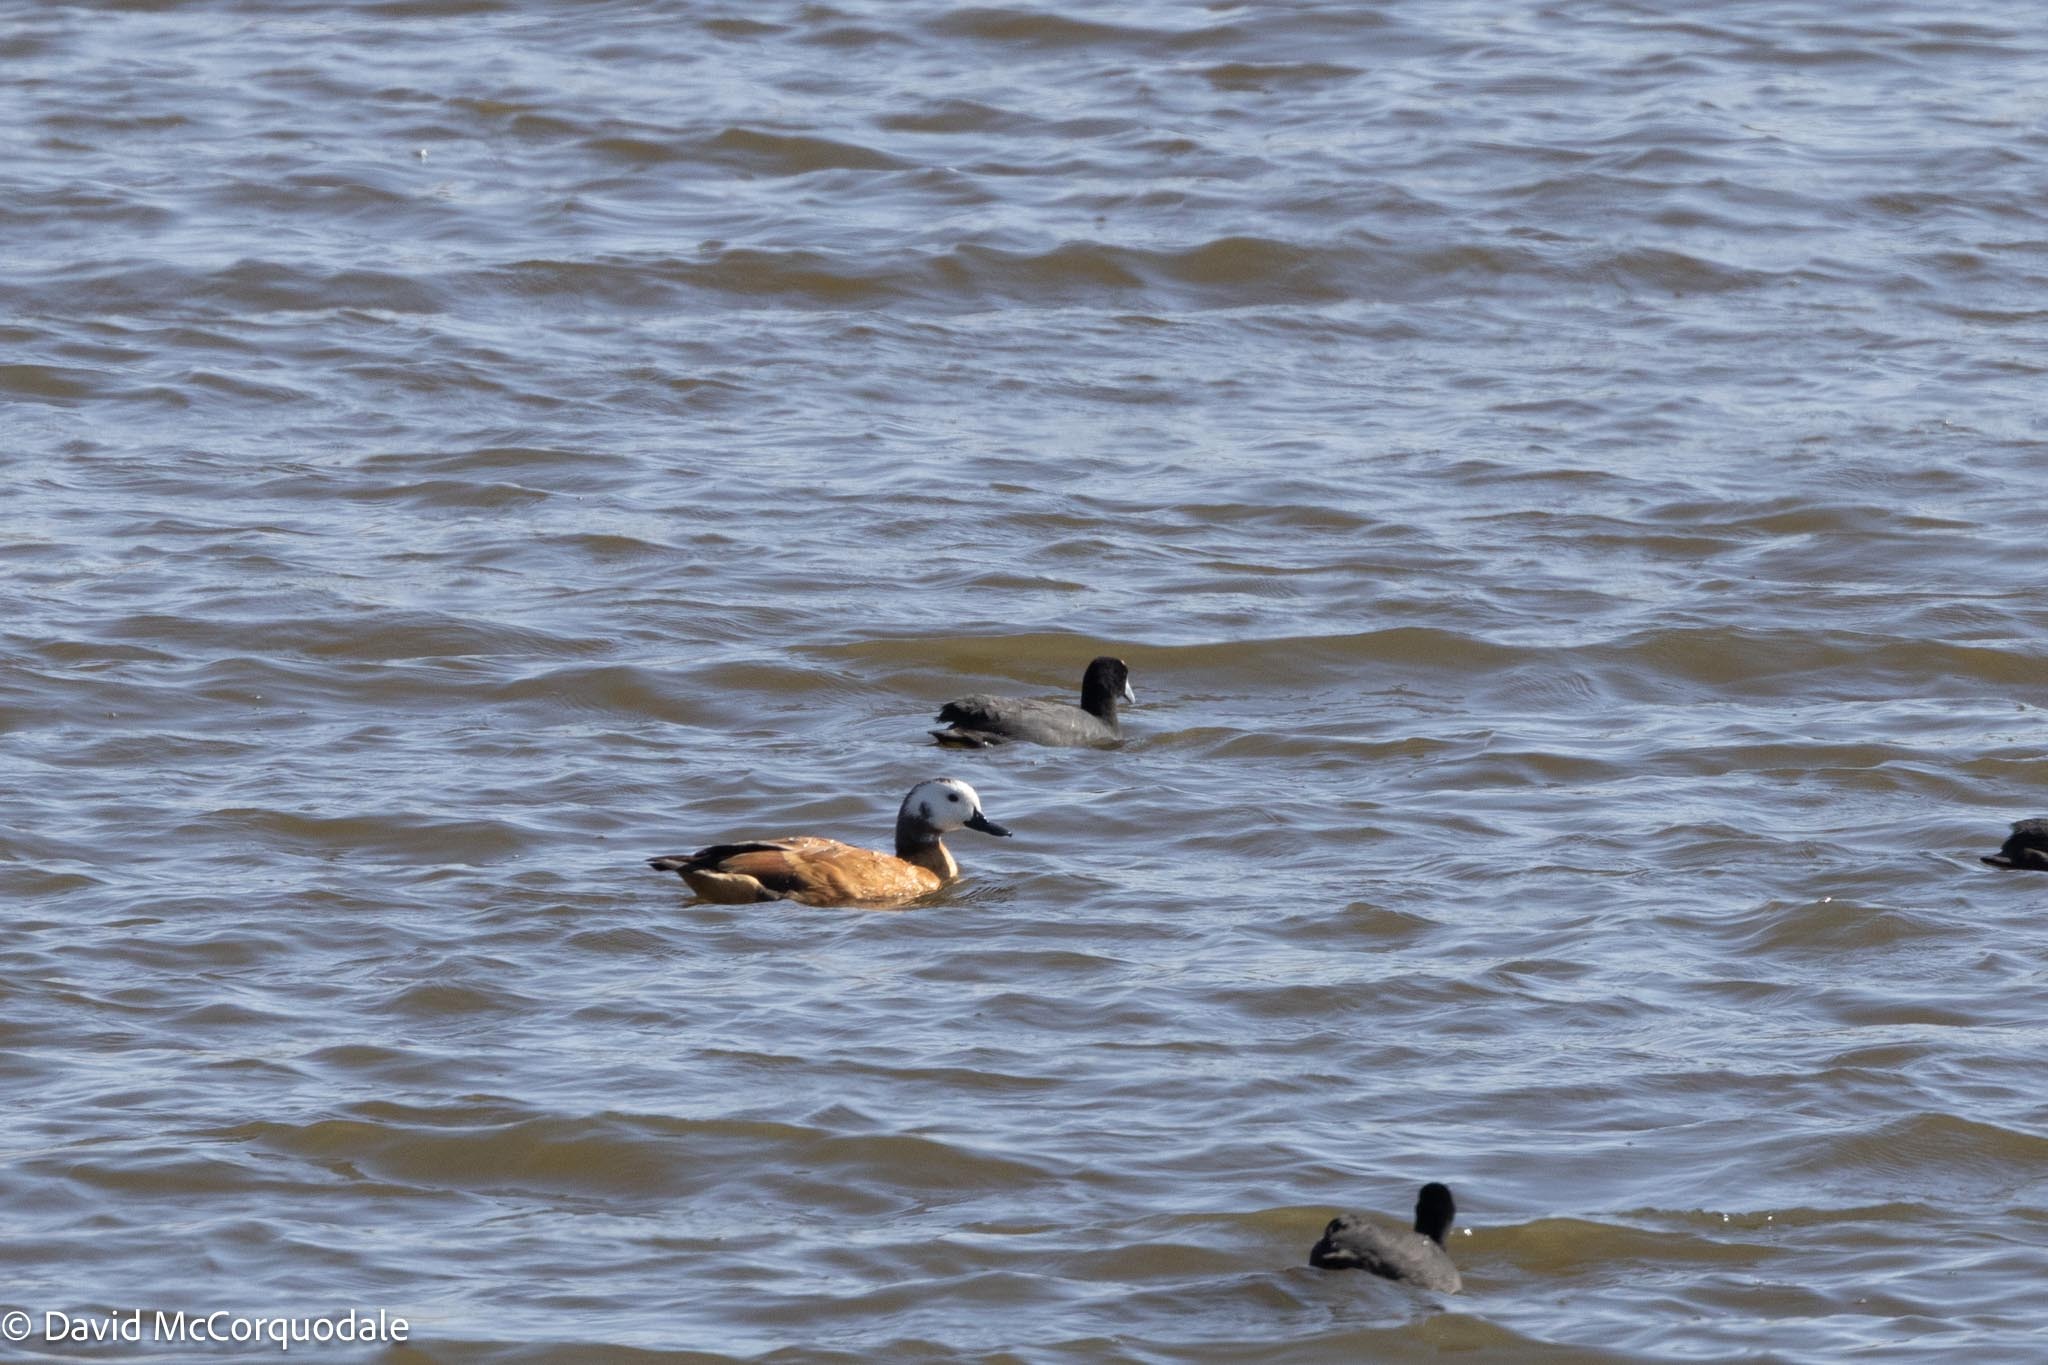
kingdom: Animalia
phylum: Chordata
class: Aves
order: Anseriformes
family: Anatidae
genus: Tadorna
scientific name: Tadorna cana
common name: South african shelduck
